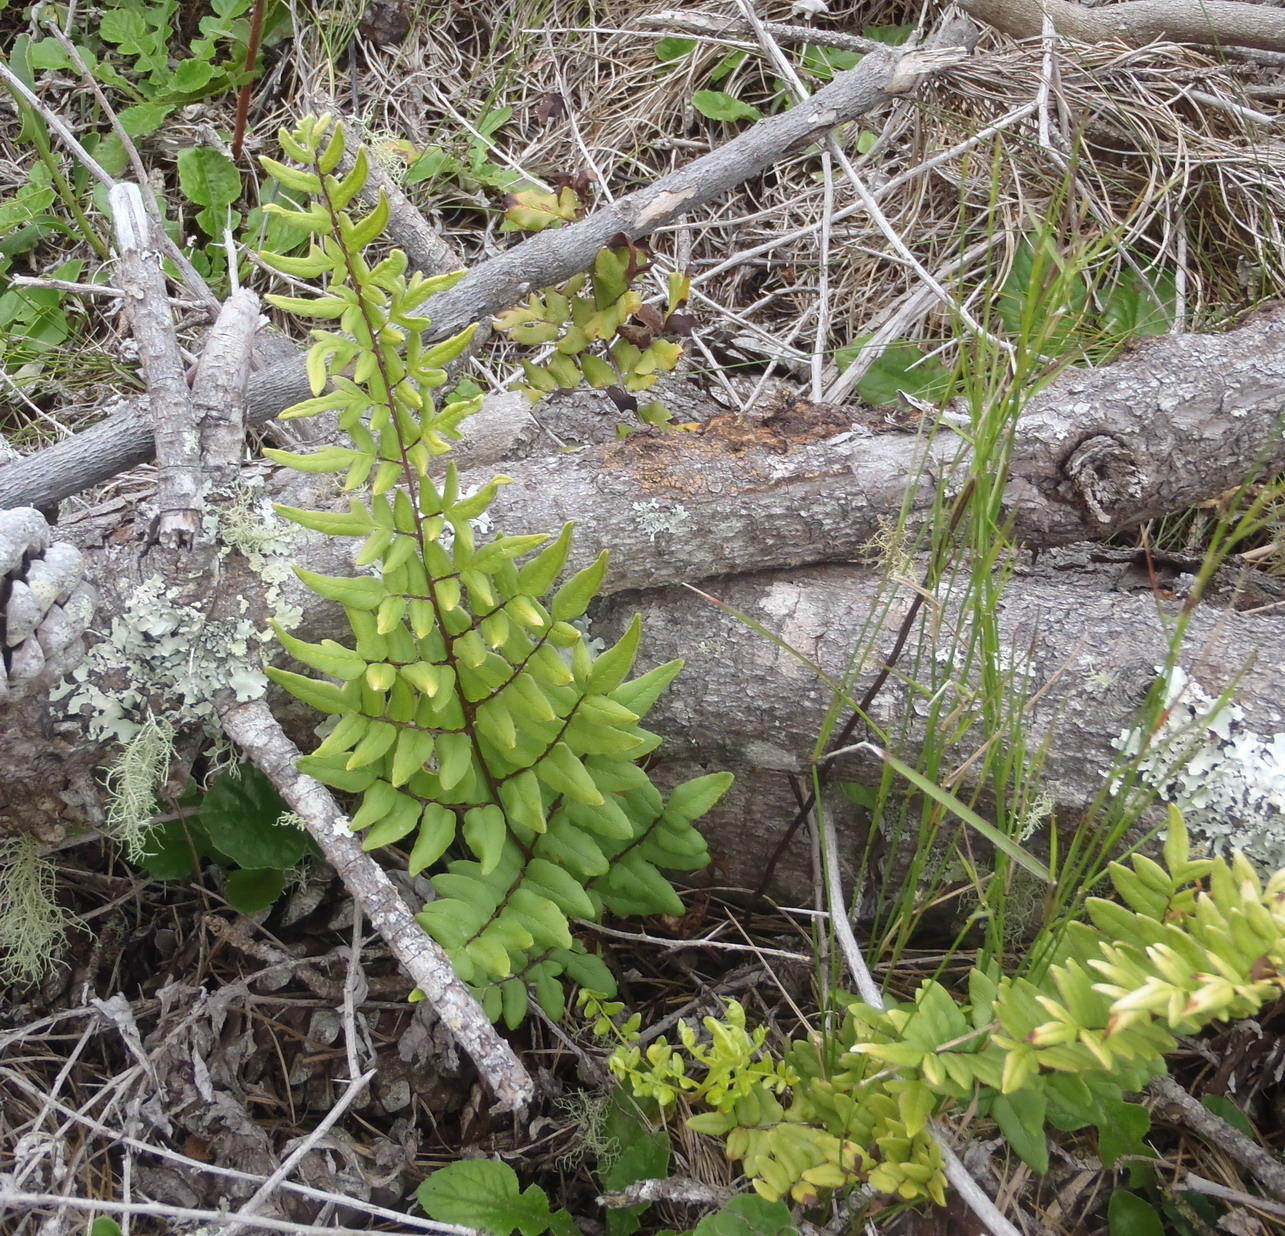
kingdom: Plantae
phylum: Tracheophyta
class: Polypodiopsida
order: Polypodiales
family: Pteridaceae
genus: Cheilanthes
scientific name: Cheilanthes viridis
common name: Green cliffbrake
